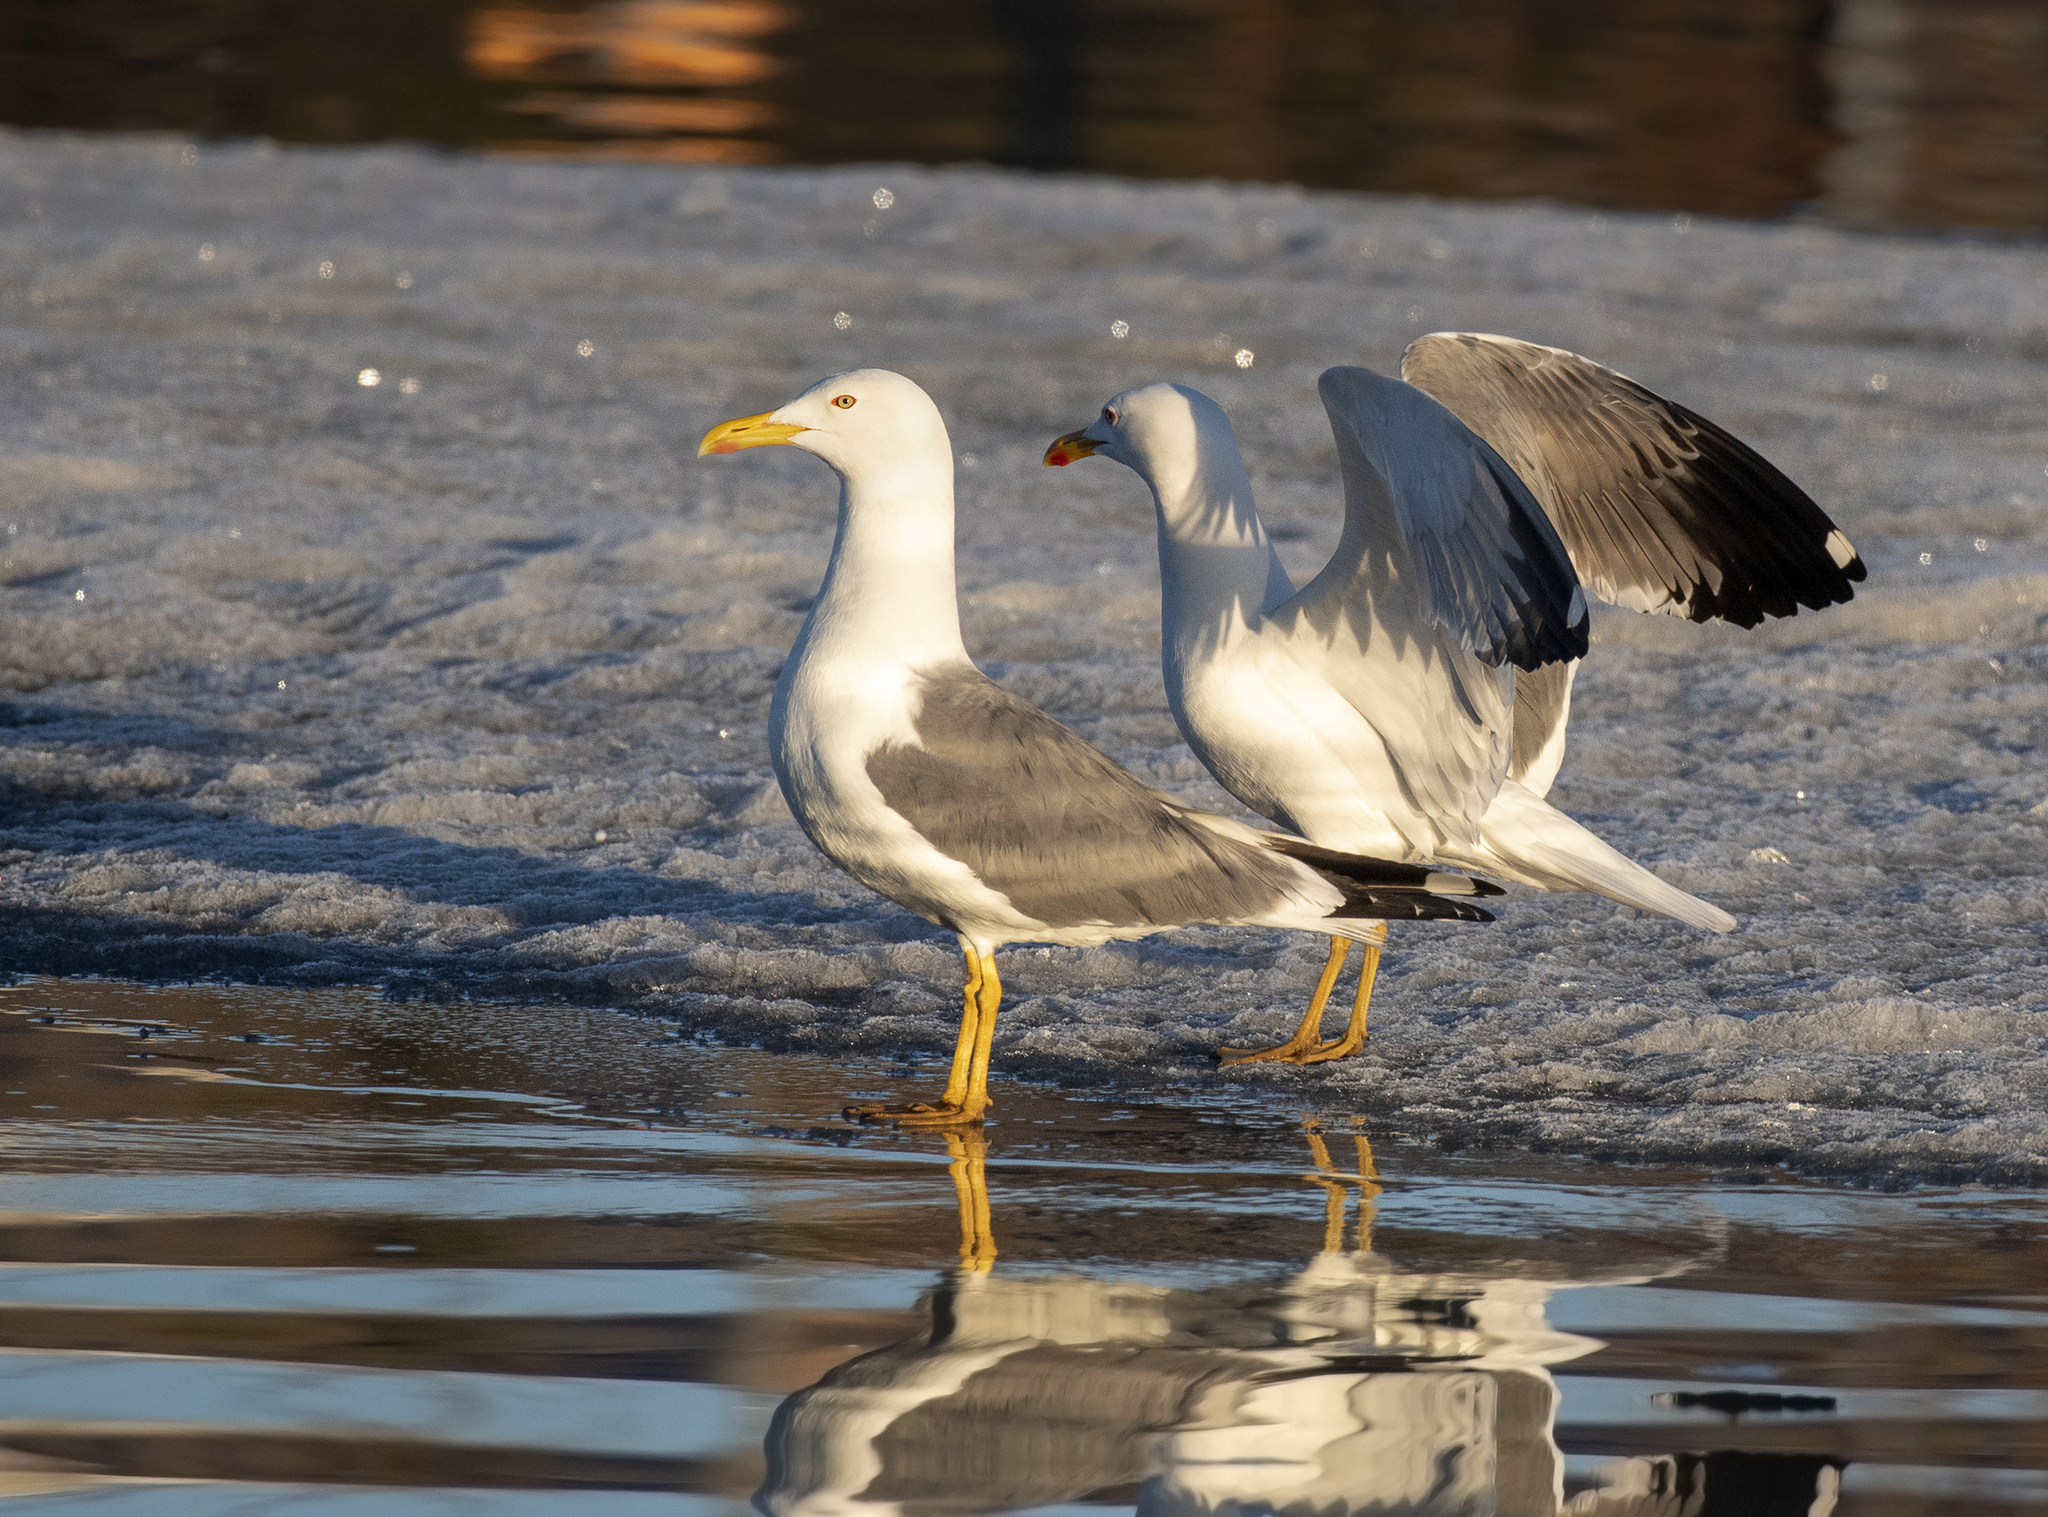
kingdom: Animalia
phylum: Chordata
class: Aves
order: Charadriiformes
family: Laridae
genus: Larus
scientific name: Larus fuscus
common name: Lesser black-backed gull
